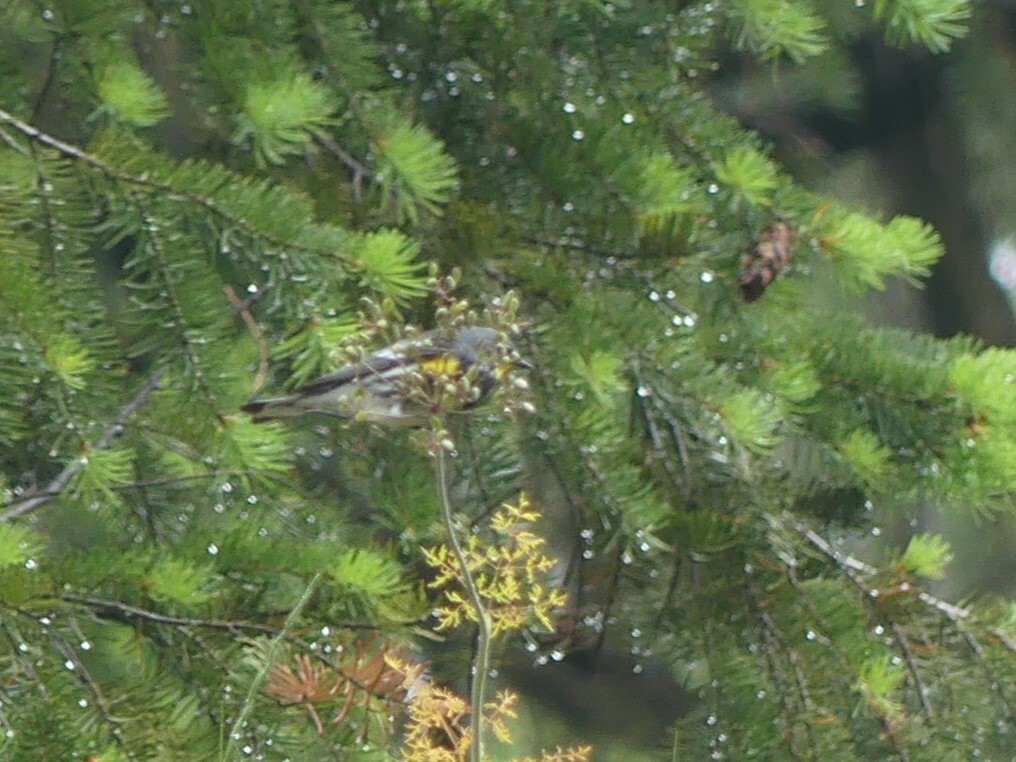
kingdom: Animalia
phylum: Chordata
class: Aves
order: Passeriformes
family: Parulidae
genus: Setophaga
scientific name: Setophaga coronata
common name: Myrtle warbler
